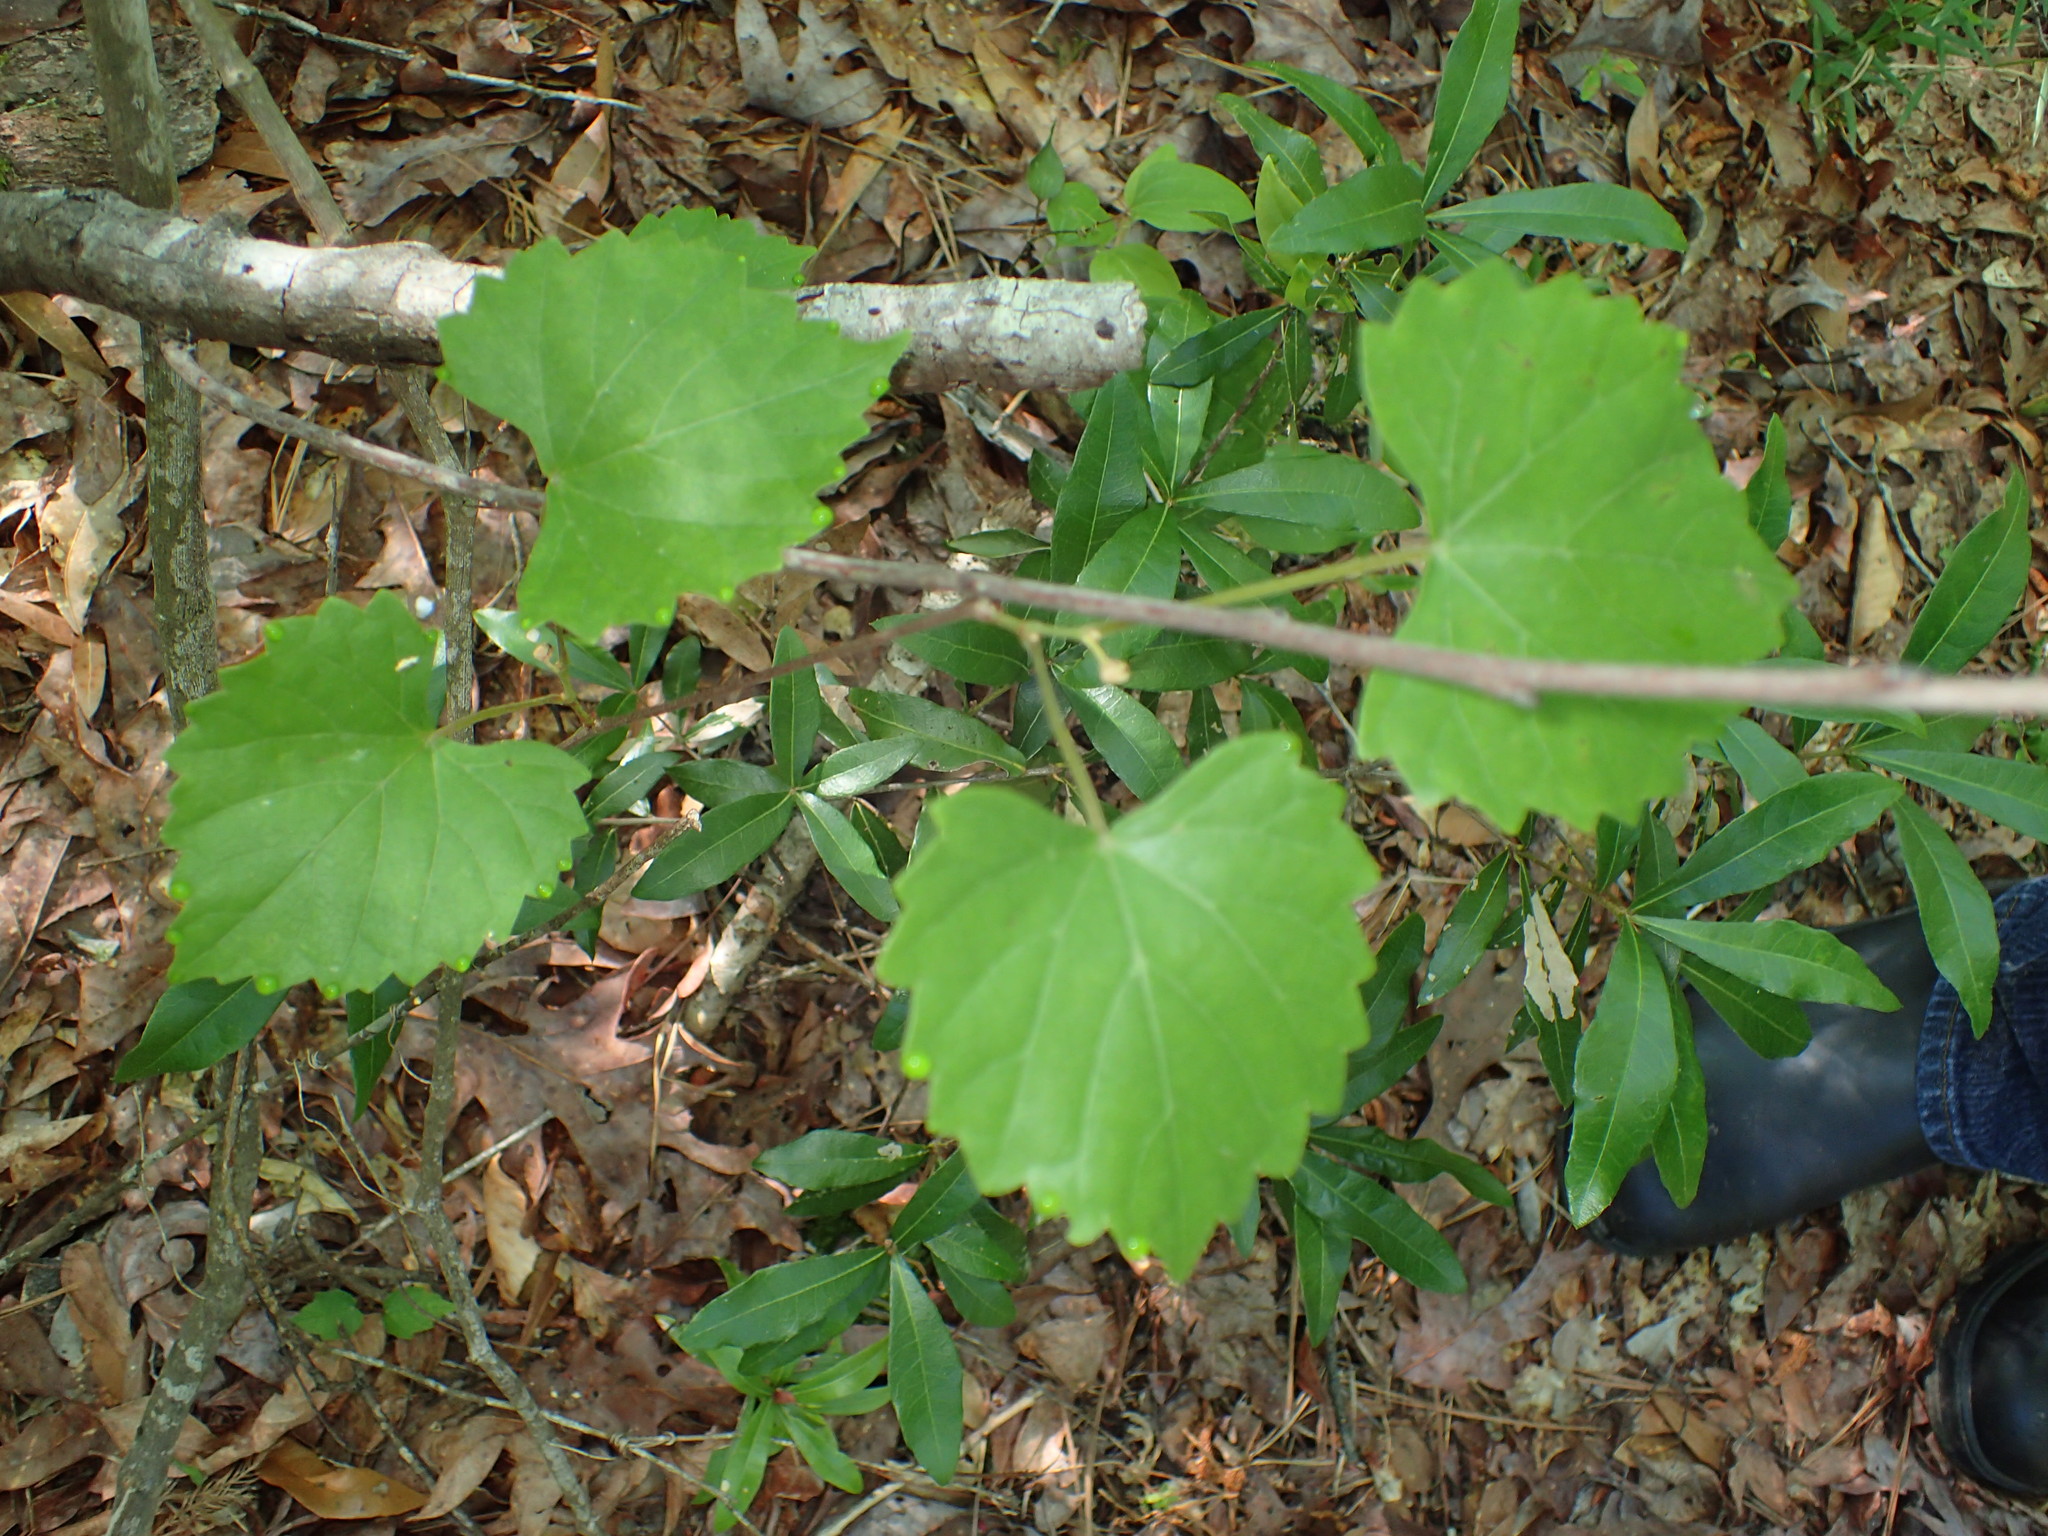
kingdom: Plantae
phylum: Tracheophyta
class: Magnoliopsida
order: Vitales
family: Vitaceae
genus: Vitis
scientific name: Vitis rotundifolia
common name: Muscadine grape
